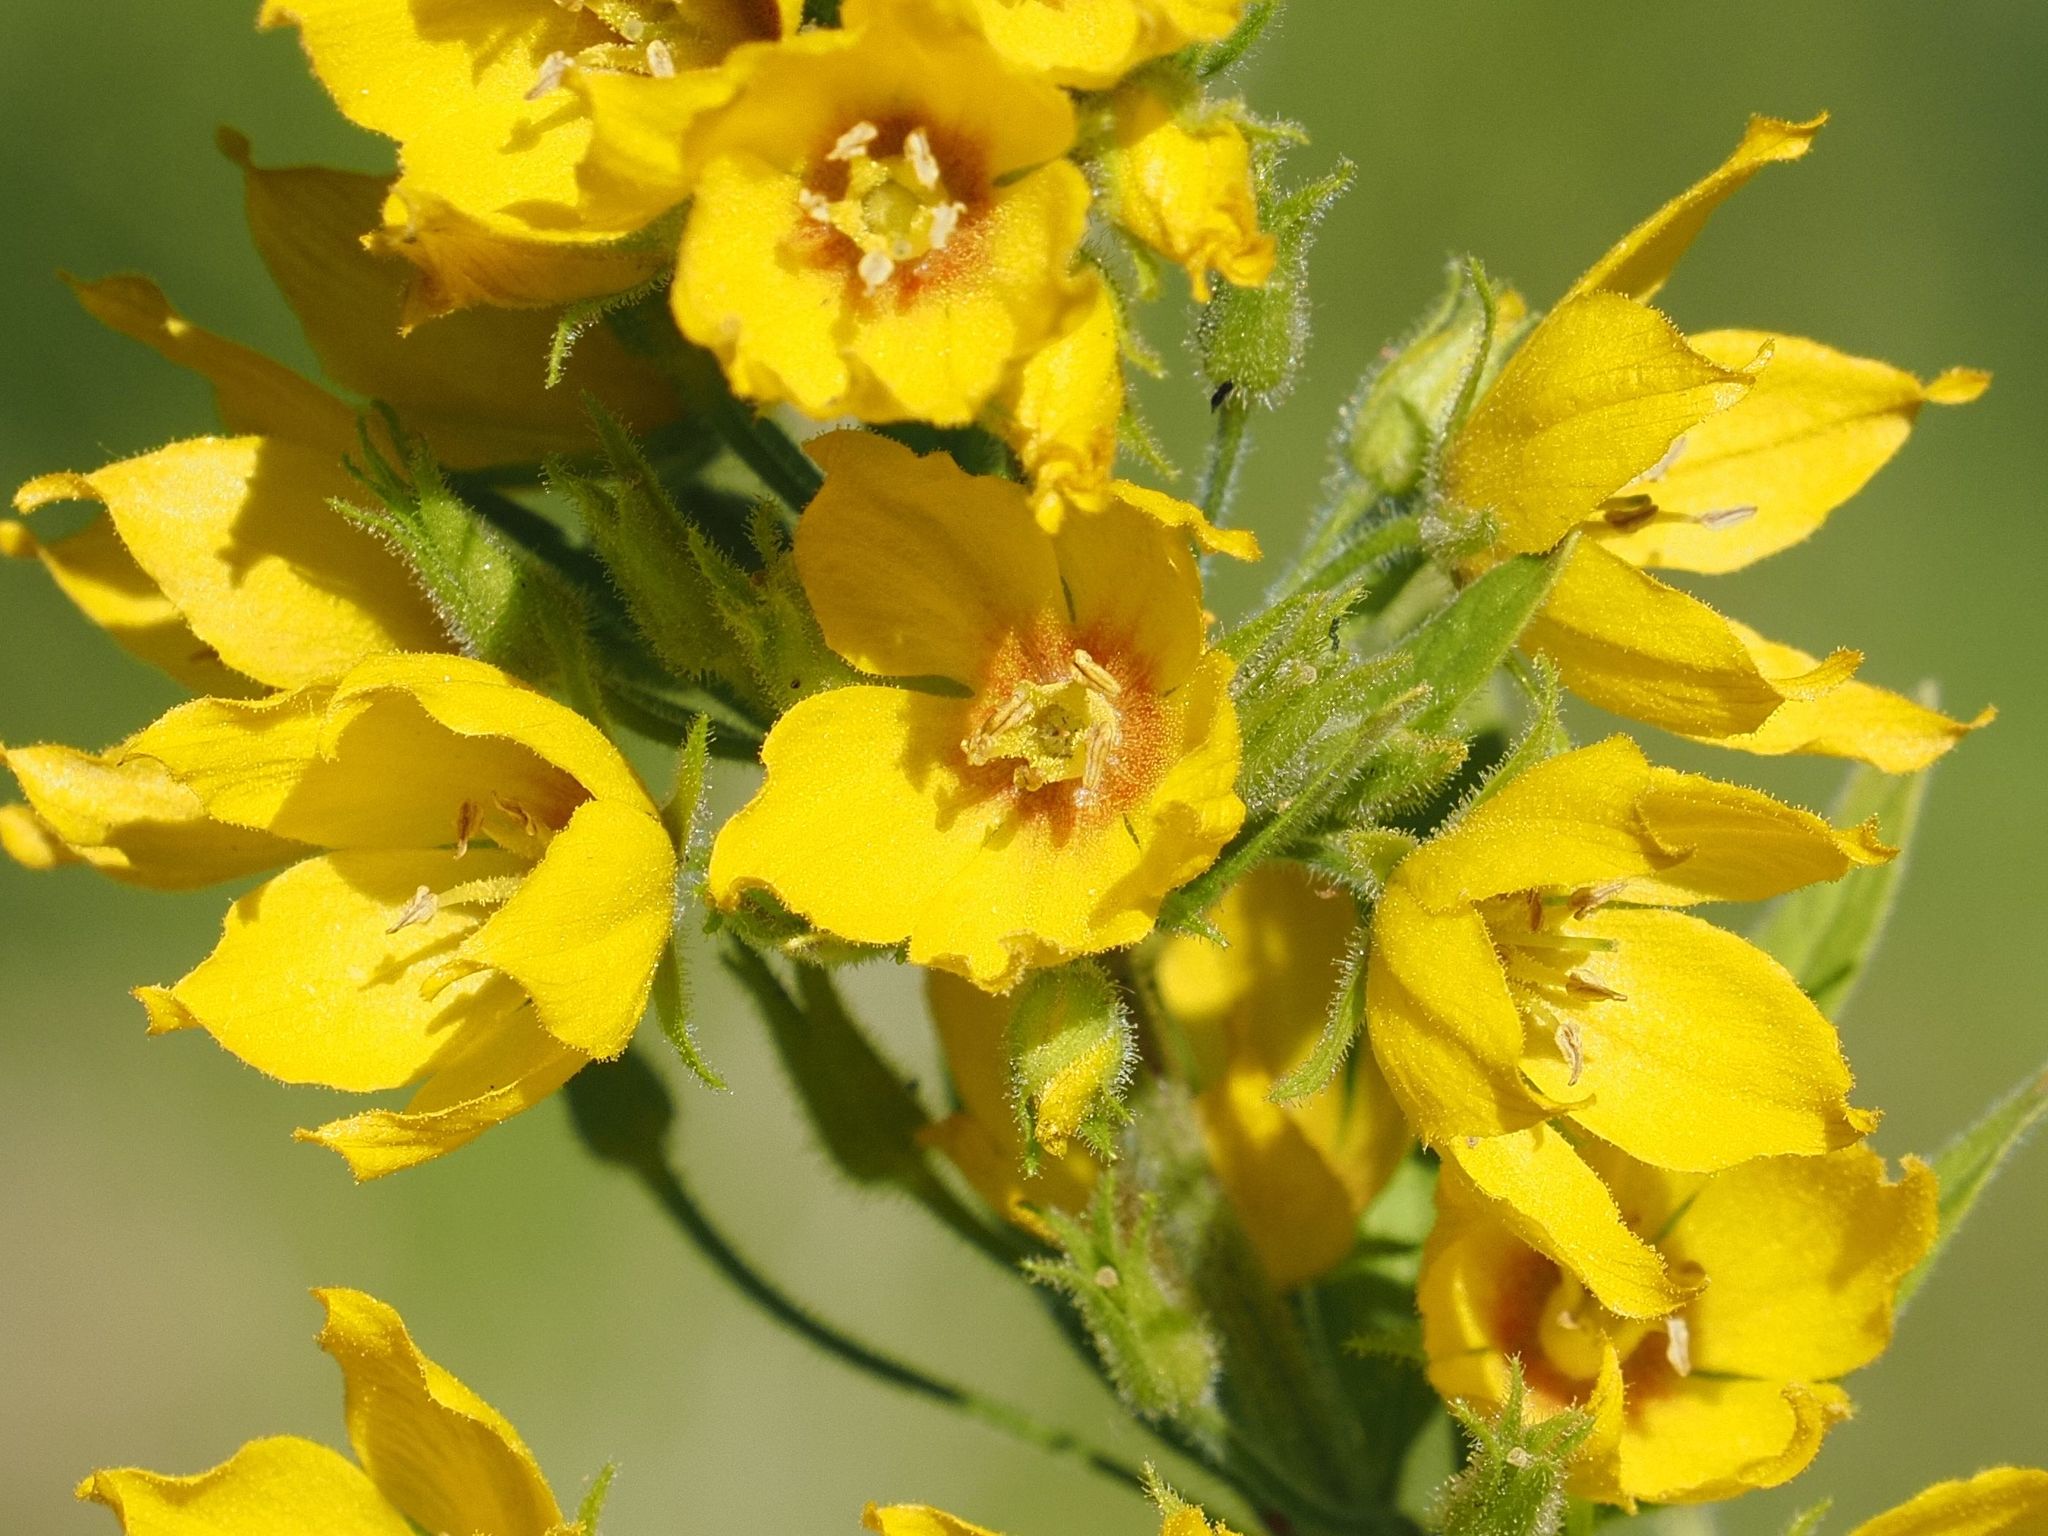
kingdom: Plantae
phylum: Tracheophyta
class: Magnoliopsida
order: Ericales
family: Primulaceae
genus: Lysimachia
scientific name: Lysimachia punctata
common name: Dotted loosestrife
